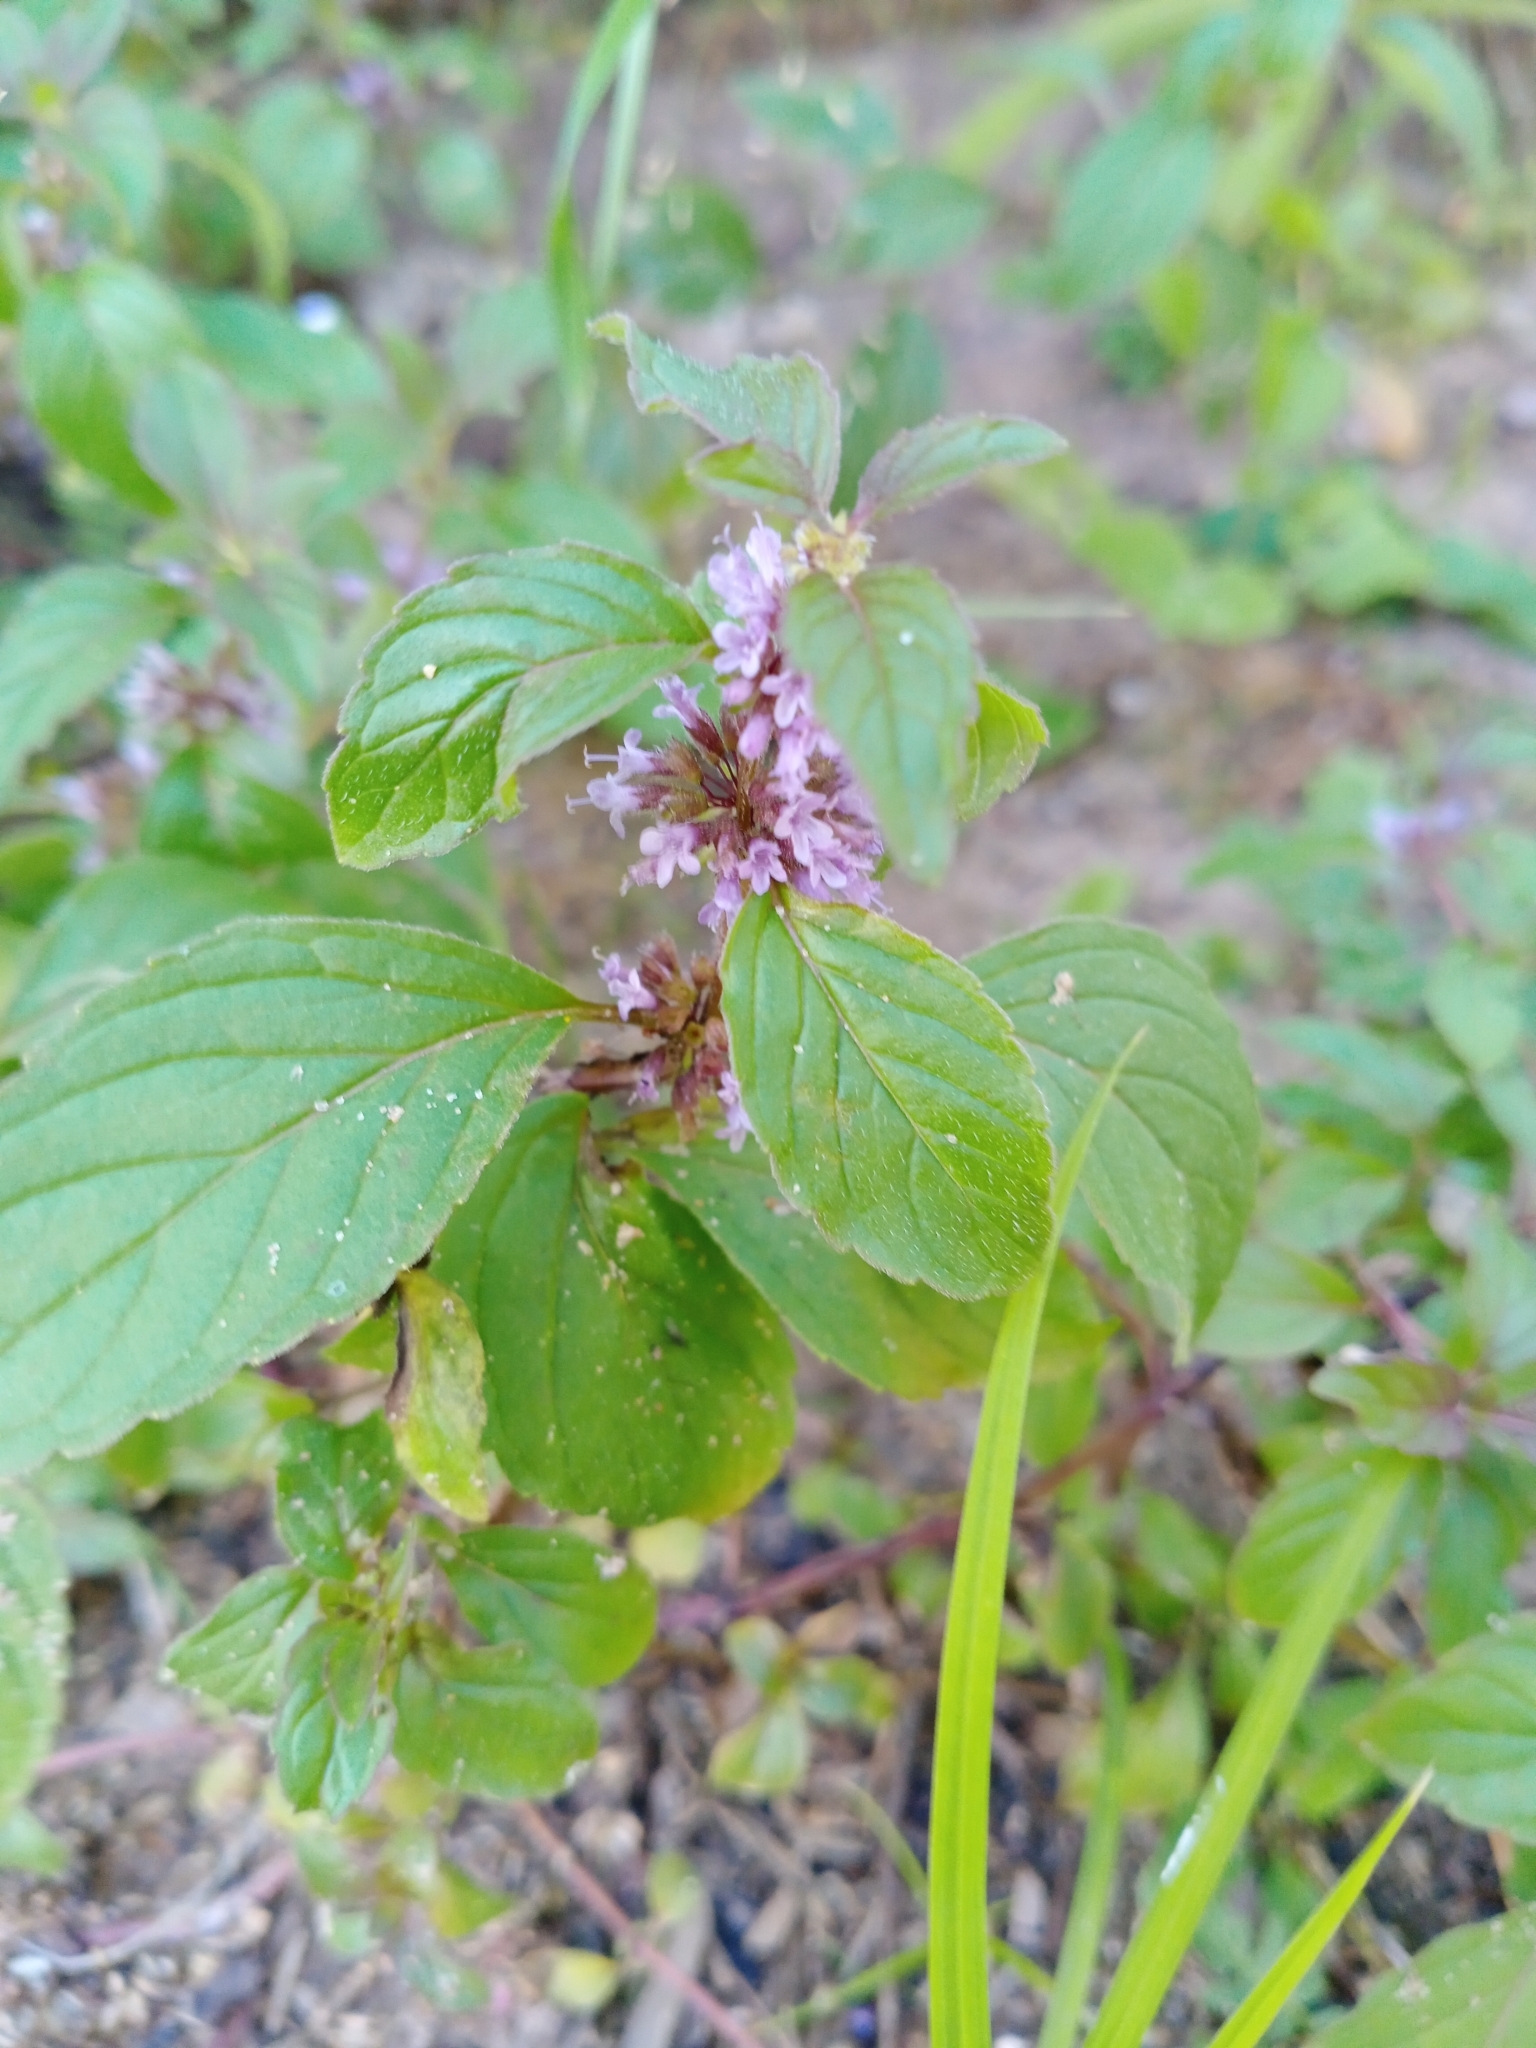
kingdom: Plantae
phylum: Tracheophyta
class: Magnoliopsida
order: Lamiales
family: Lamiaceae
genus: Mentha
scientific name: Mentha arvensis
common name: Corn mint
